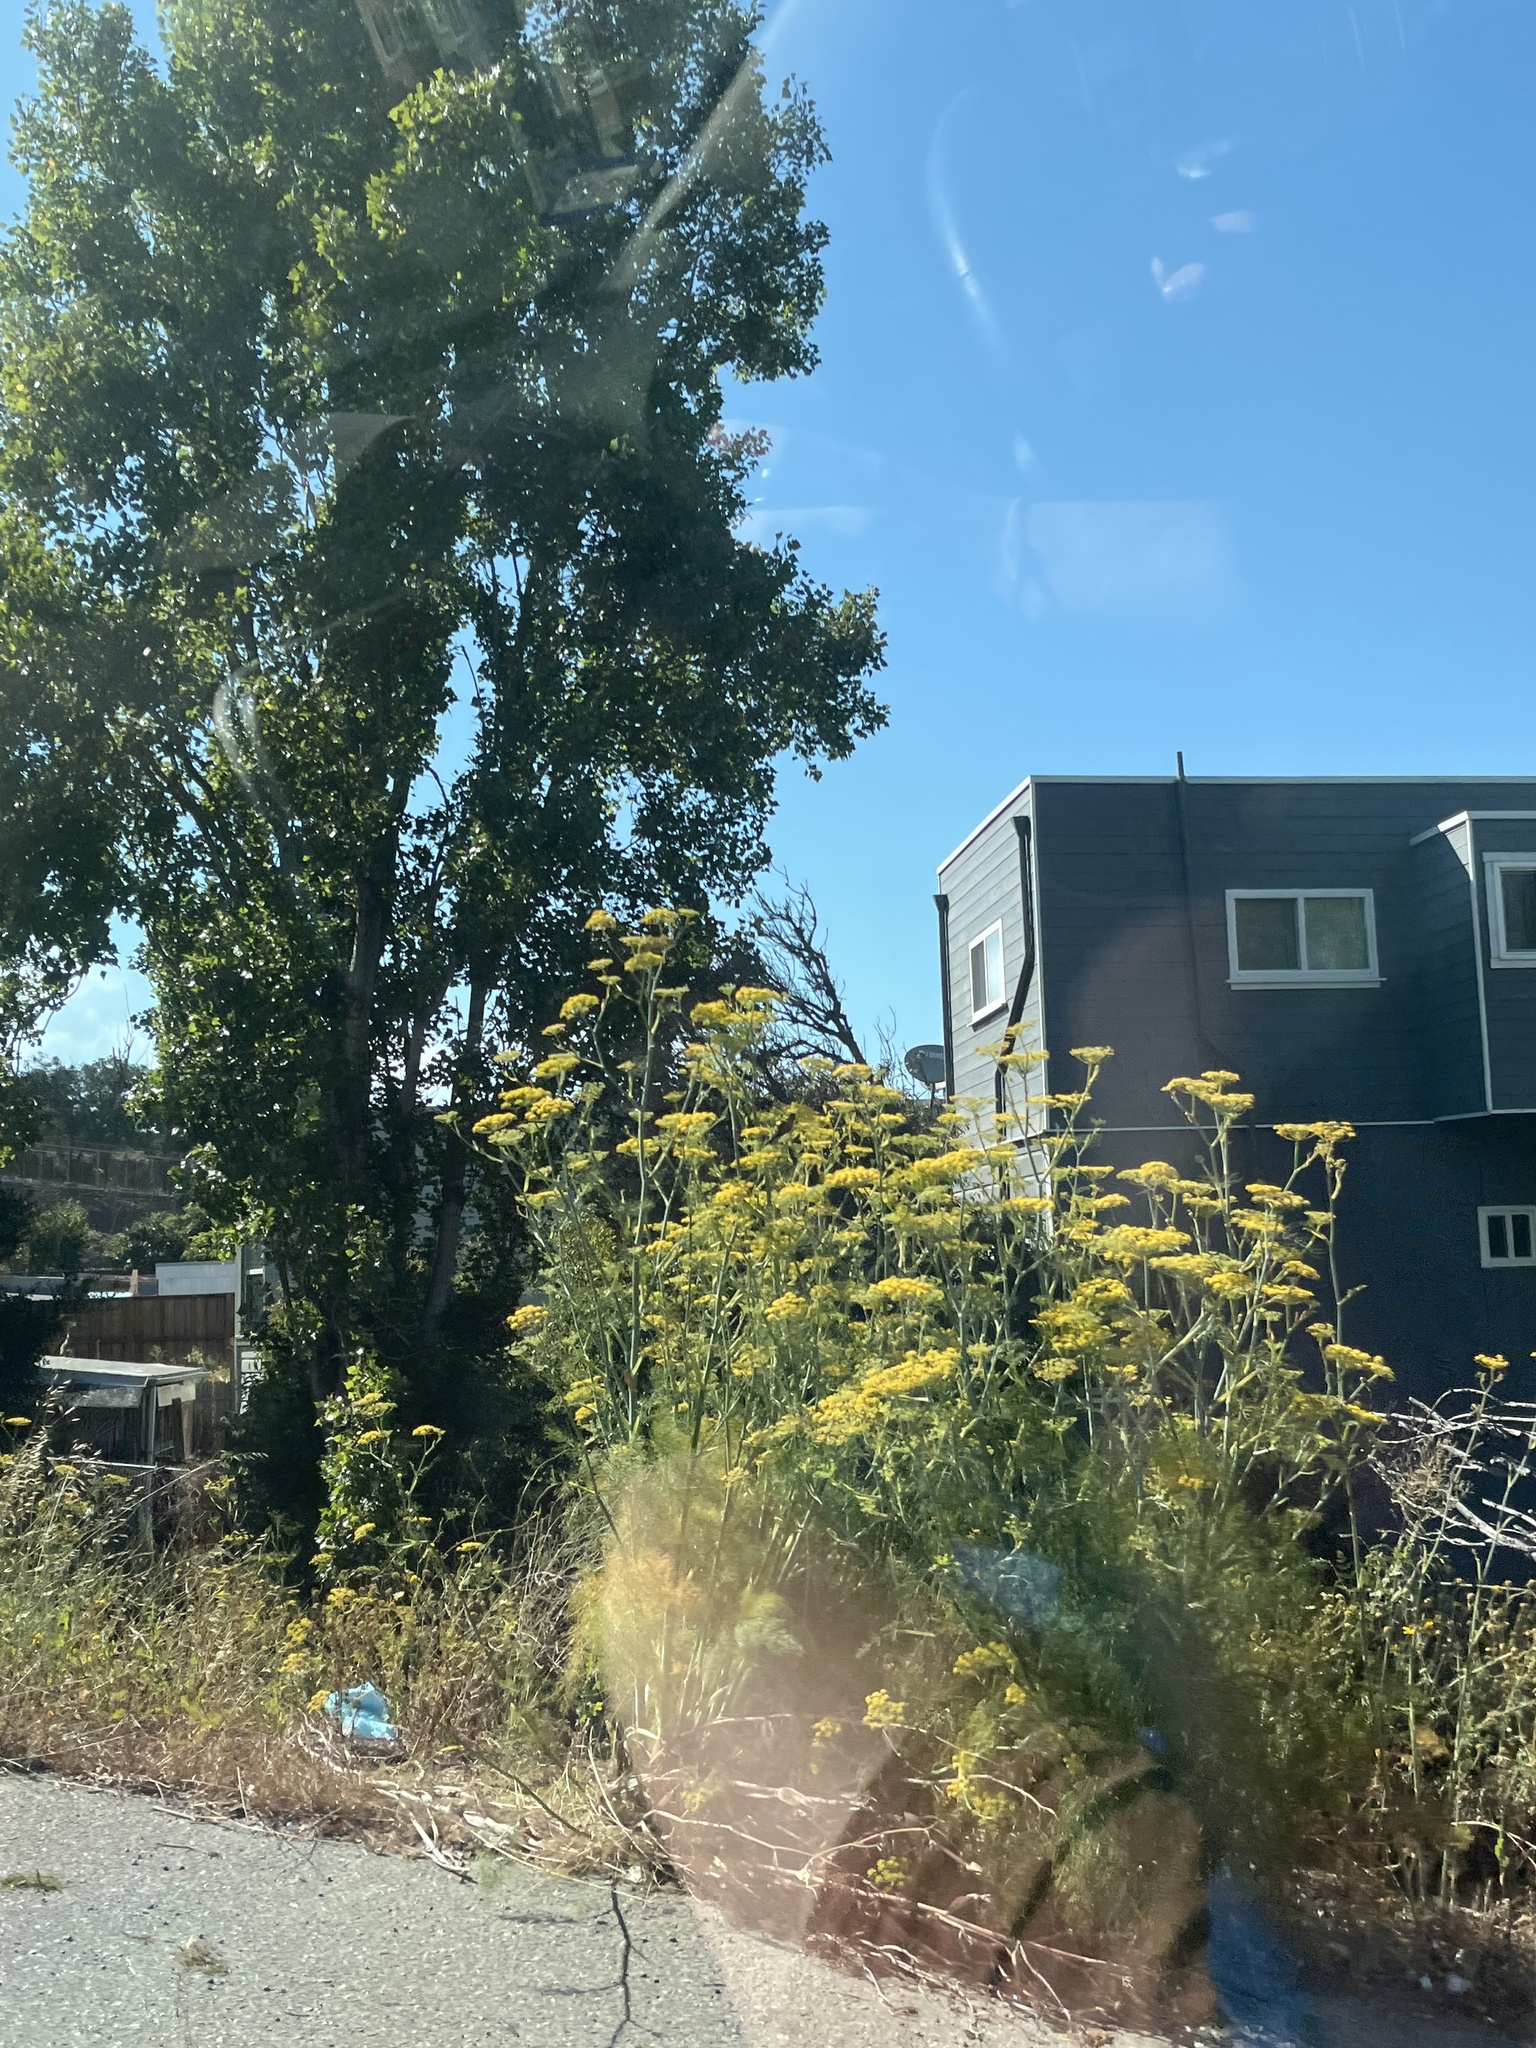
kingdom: Plantae
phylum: Tracheophyta
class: Magnoliopsida
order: Apiales
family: Apiaceae
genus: Foeniculum
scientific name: Foeniculum vulgare
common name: Fennel
